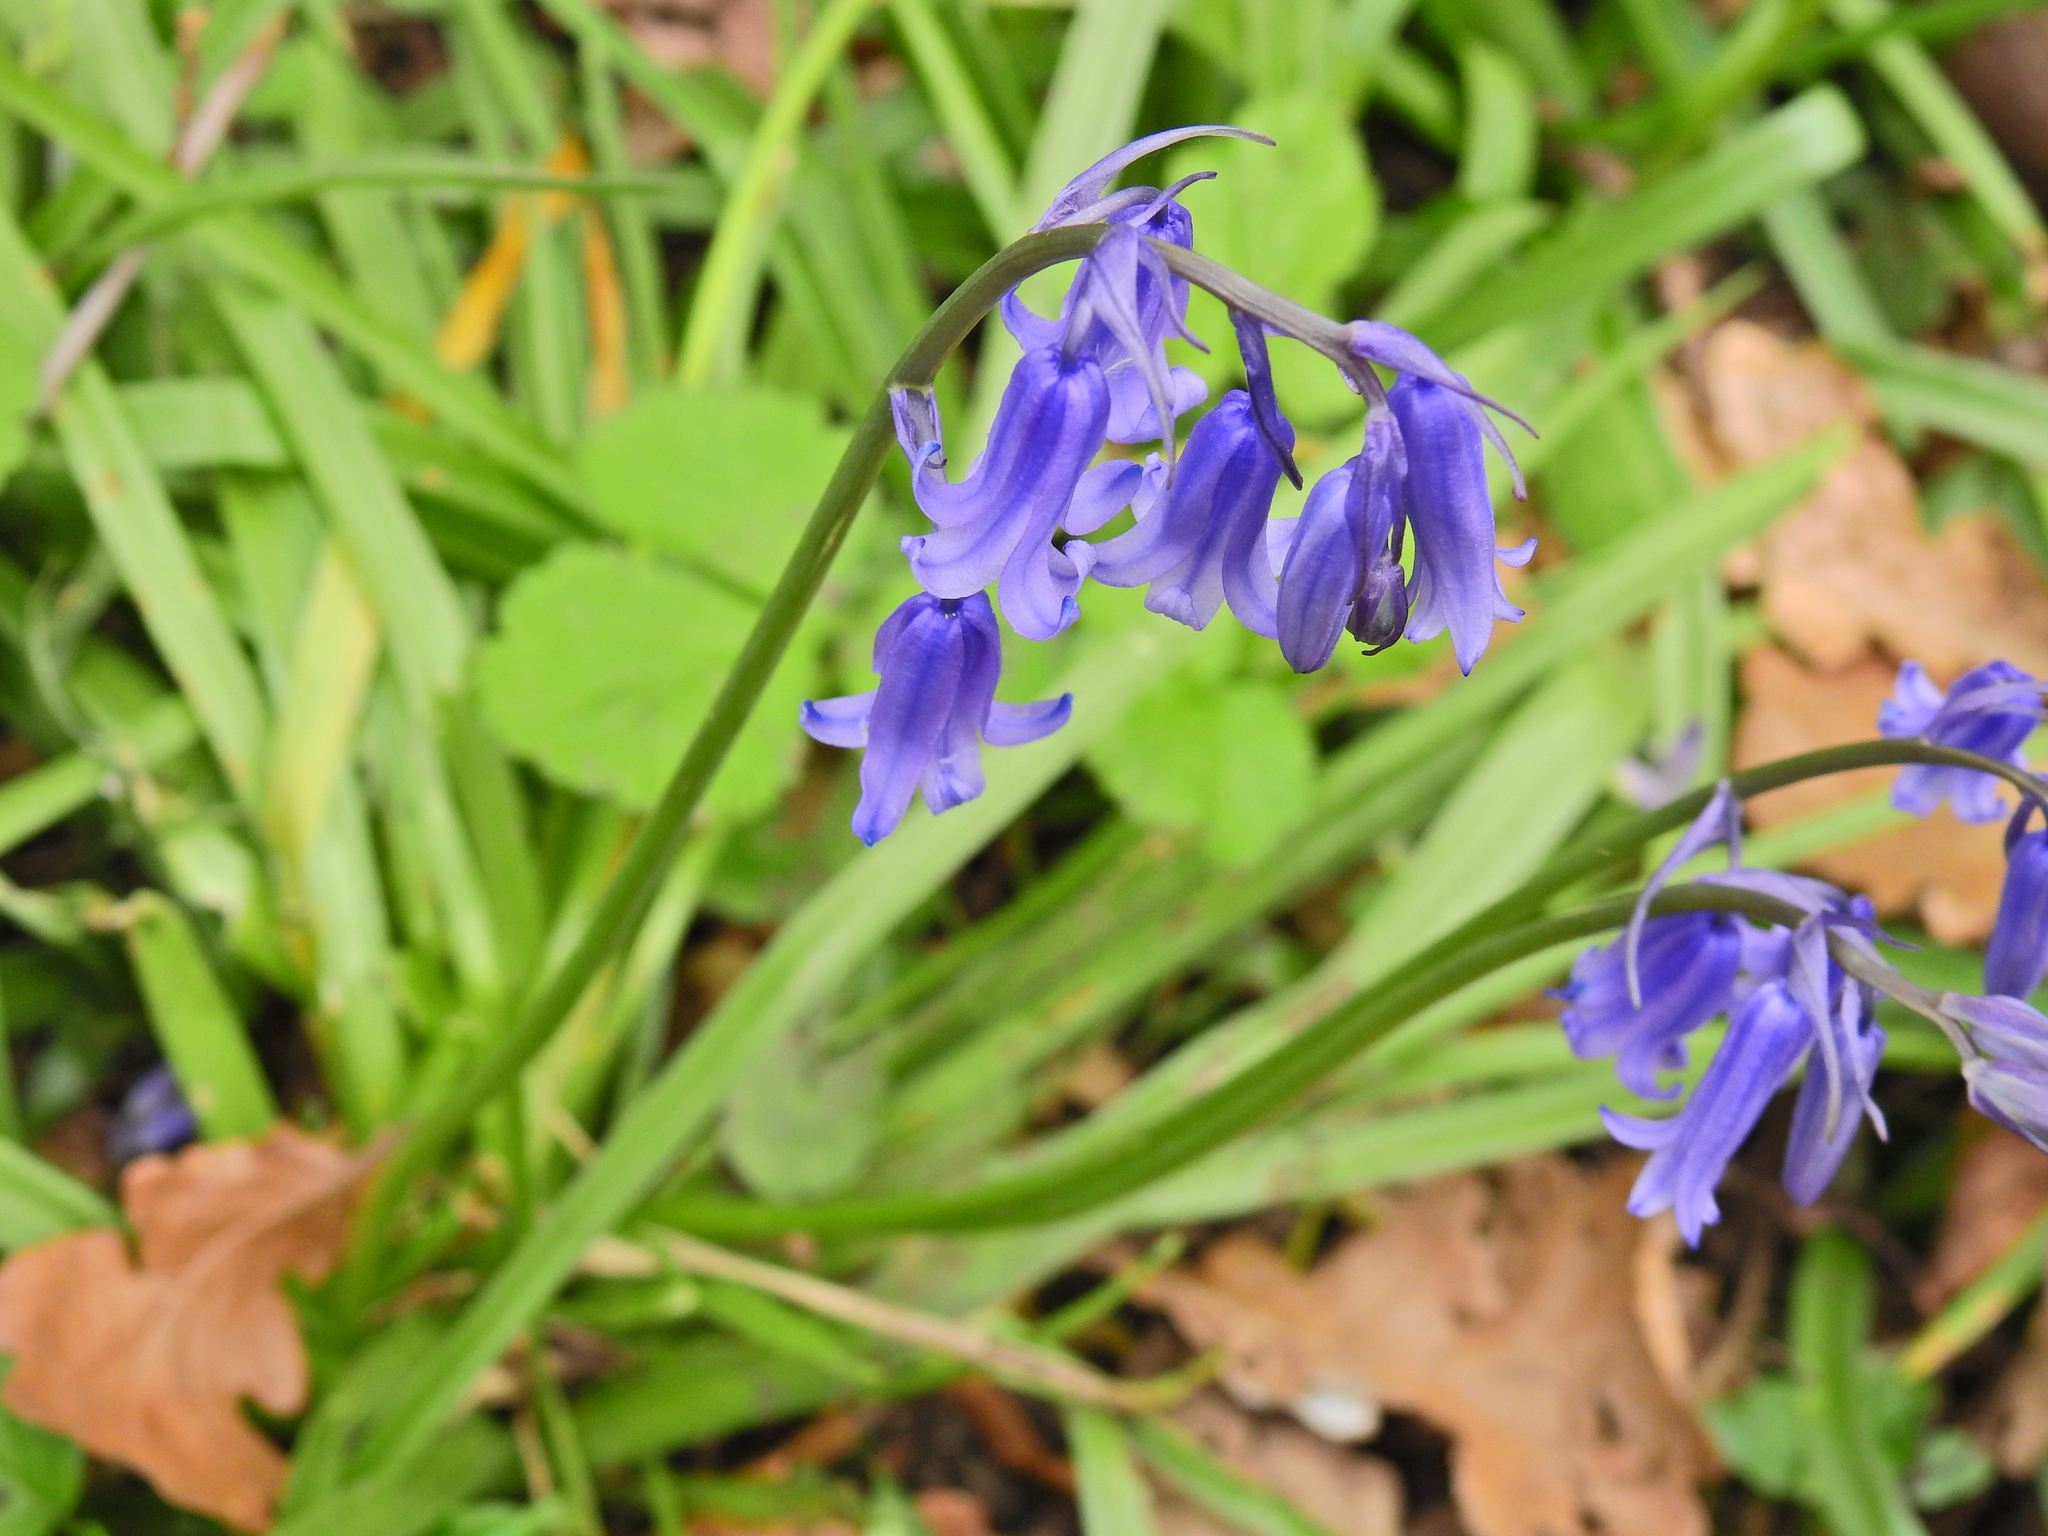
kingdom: Plantae
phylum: Tracheophyta
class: Liliopsida
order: Asparagales
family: Asparagaceae
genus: Hyacinthoides
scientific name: Hyacinthoides non-scripta
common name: Bluebell
